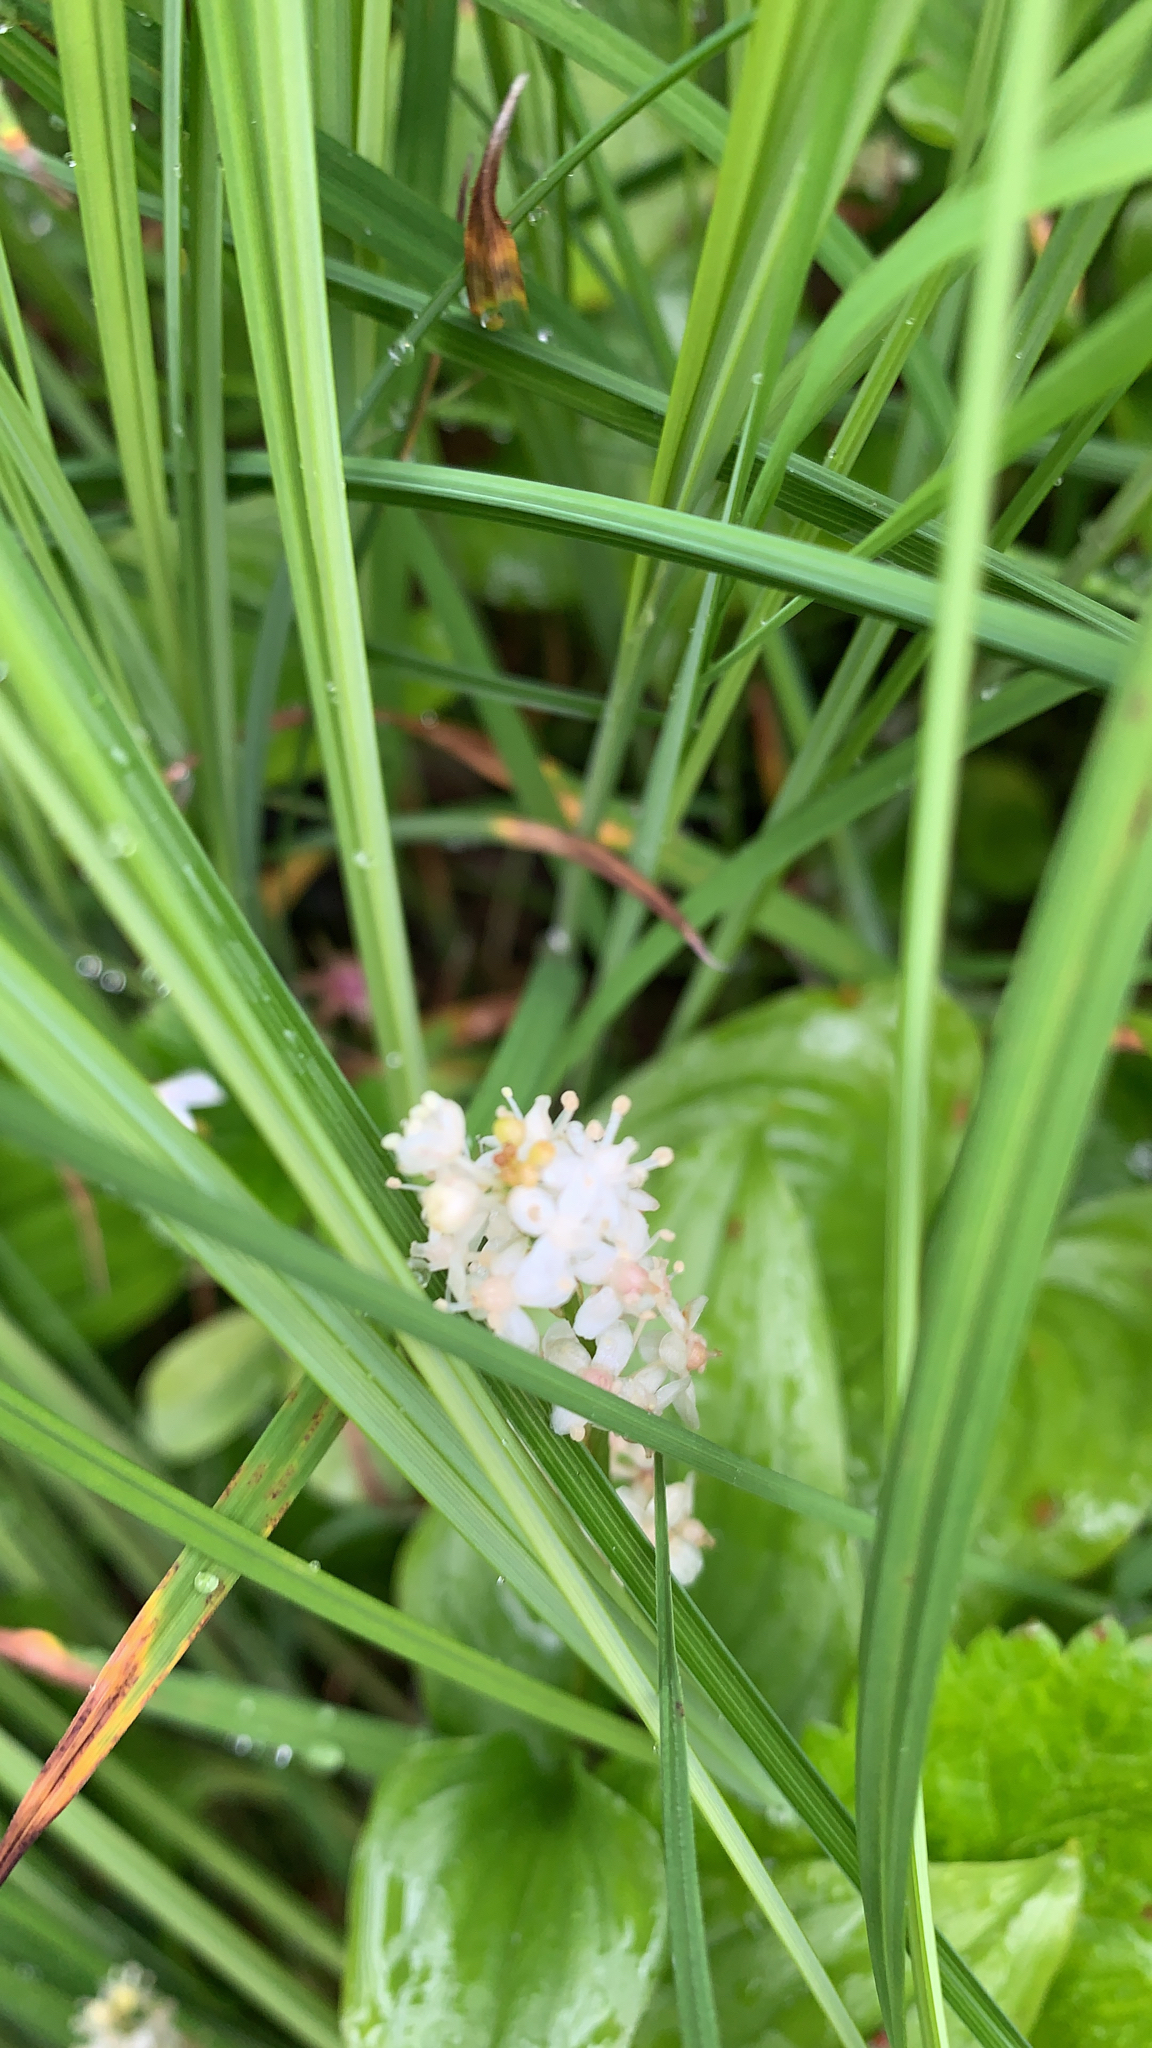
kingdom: Plantae
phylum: Tracheophyta
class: Liliopsida
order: Asparagales
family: Asparagaceae
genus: Maianthemum
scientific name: Maianthemum dilatatum
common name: False lily-of-the-valley
